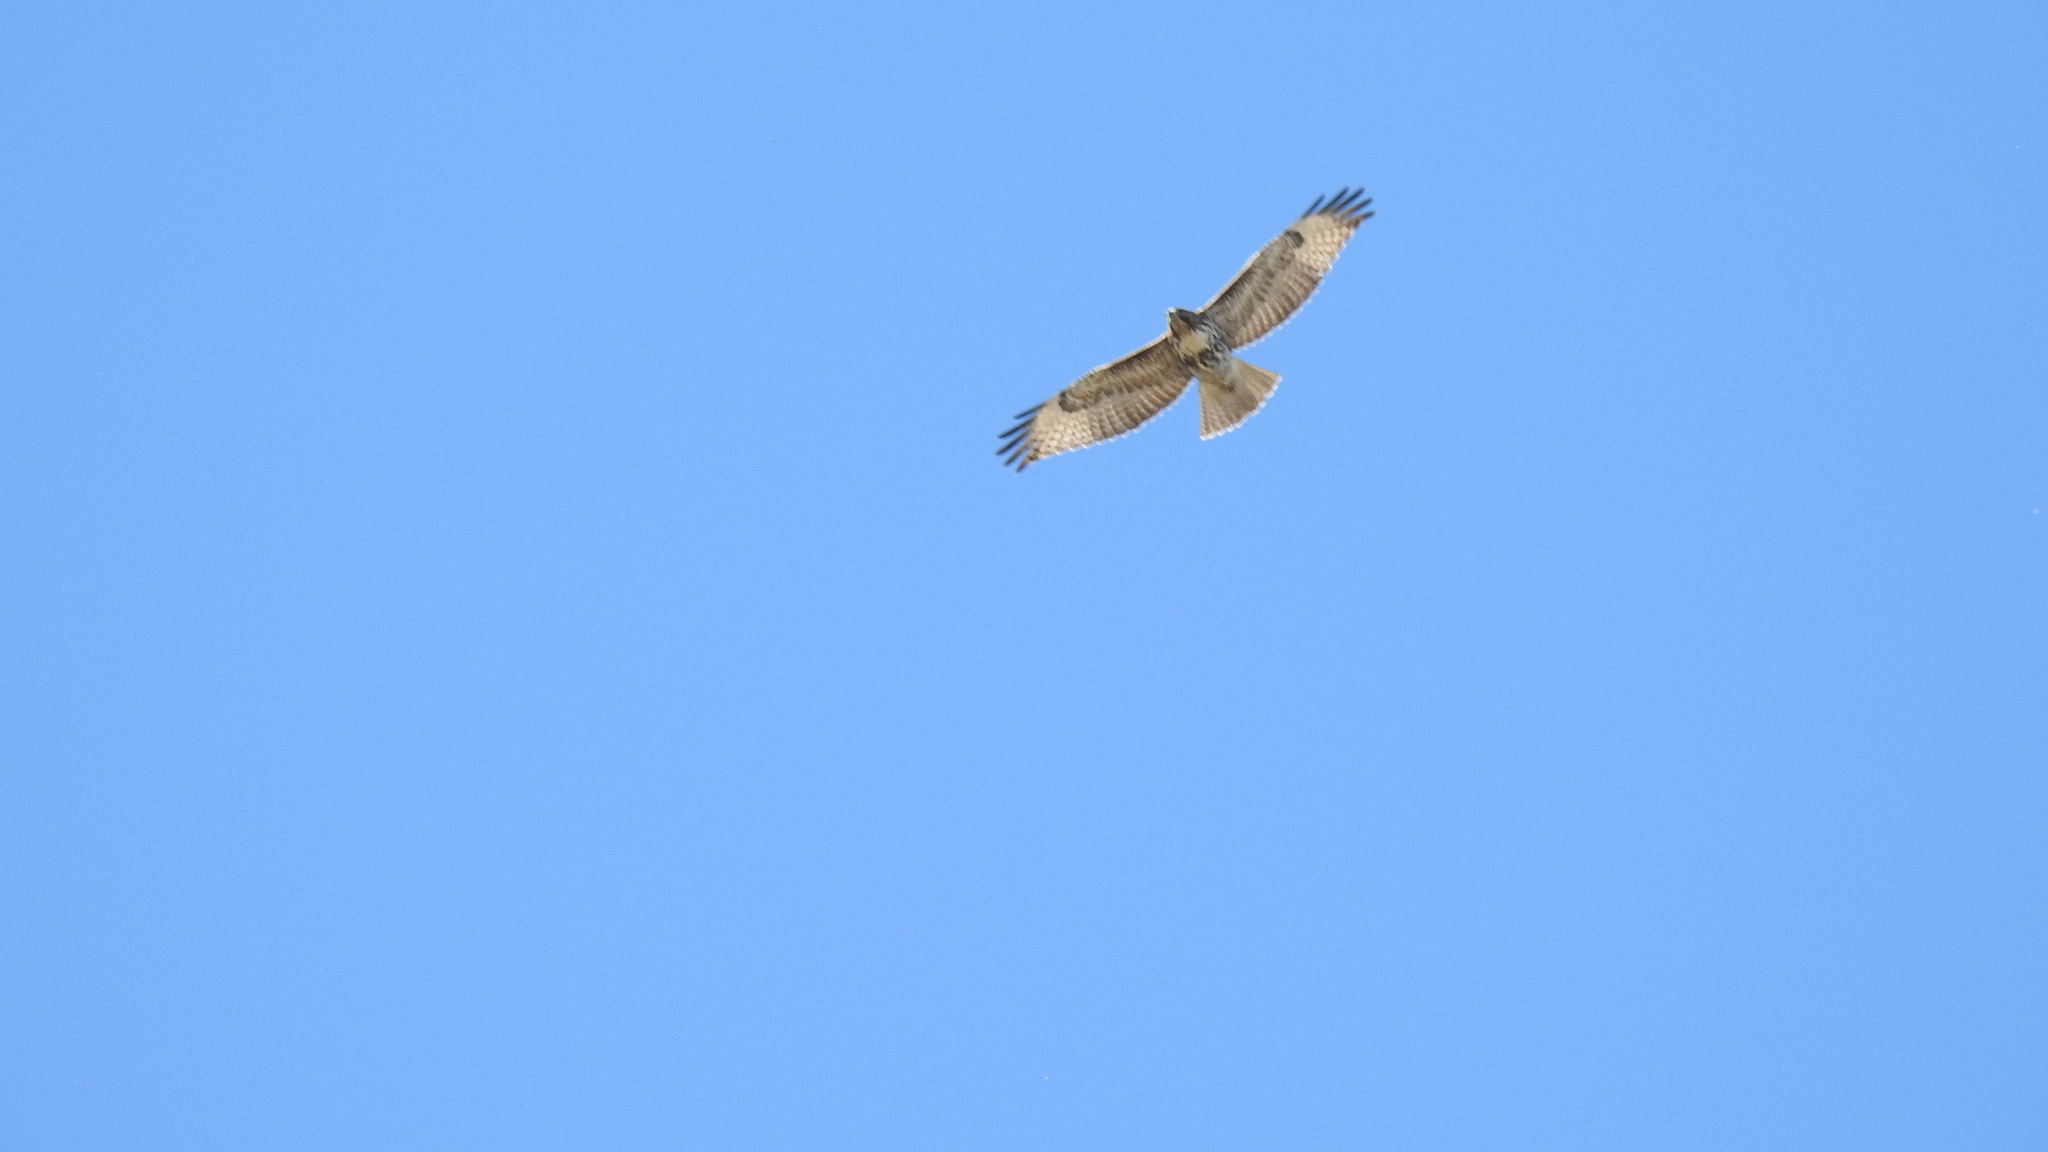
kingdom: Animalia
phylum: Chordata
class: Aves
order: Accipitriformes
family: Accipitridae
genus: Buteo
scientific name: Buteo jamaicensis
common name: Red-tailed hawk
